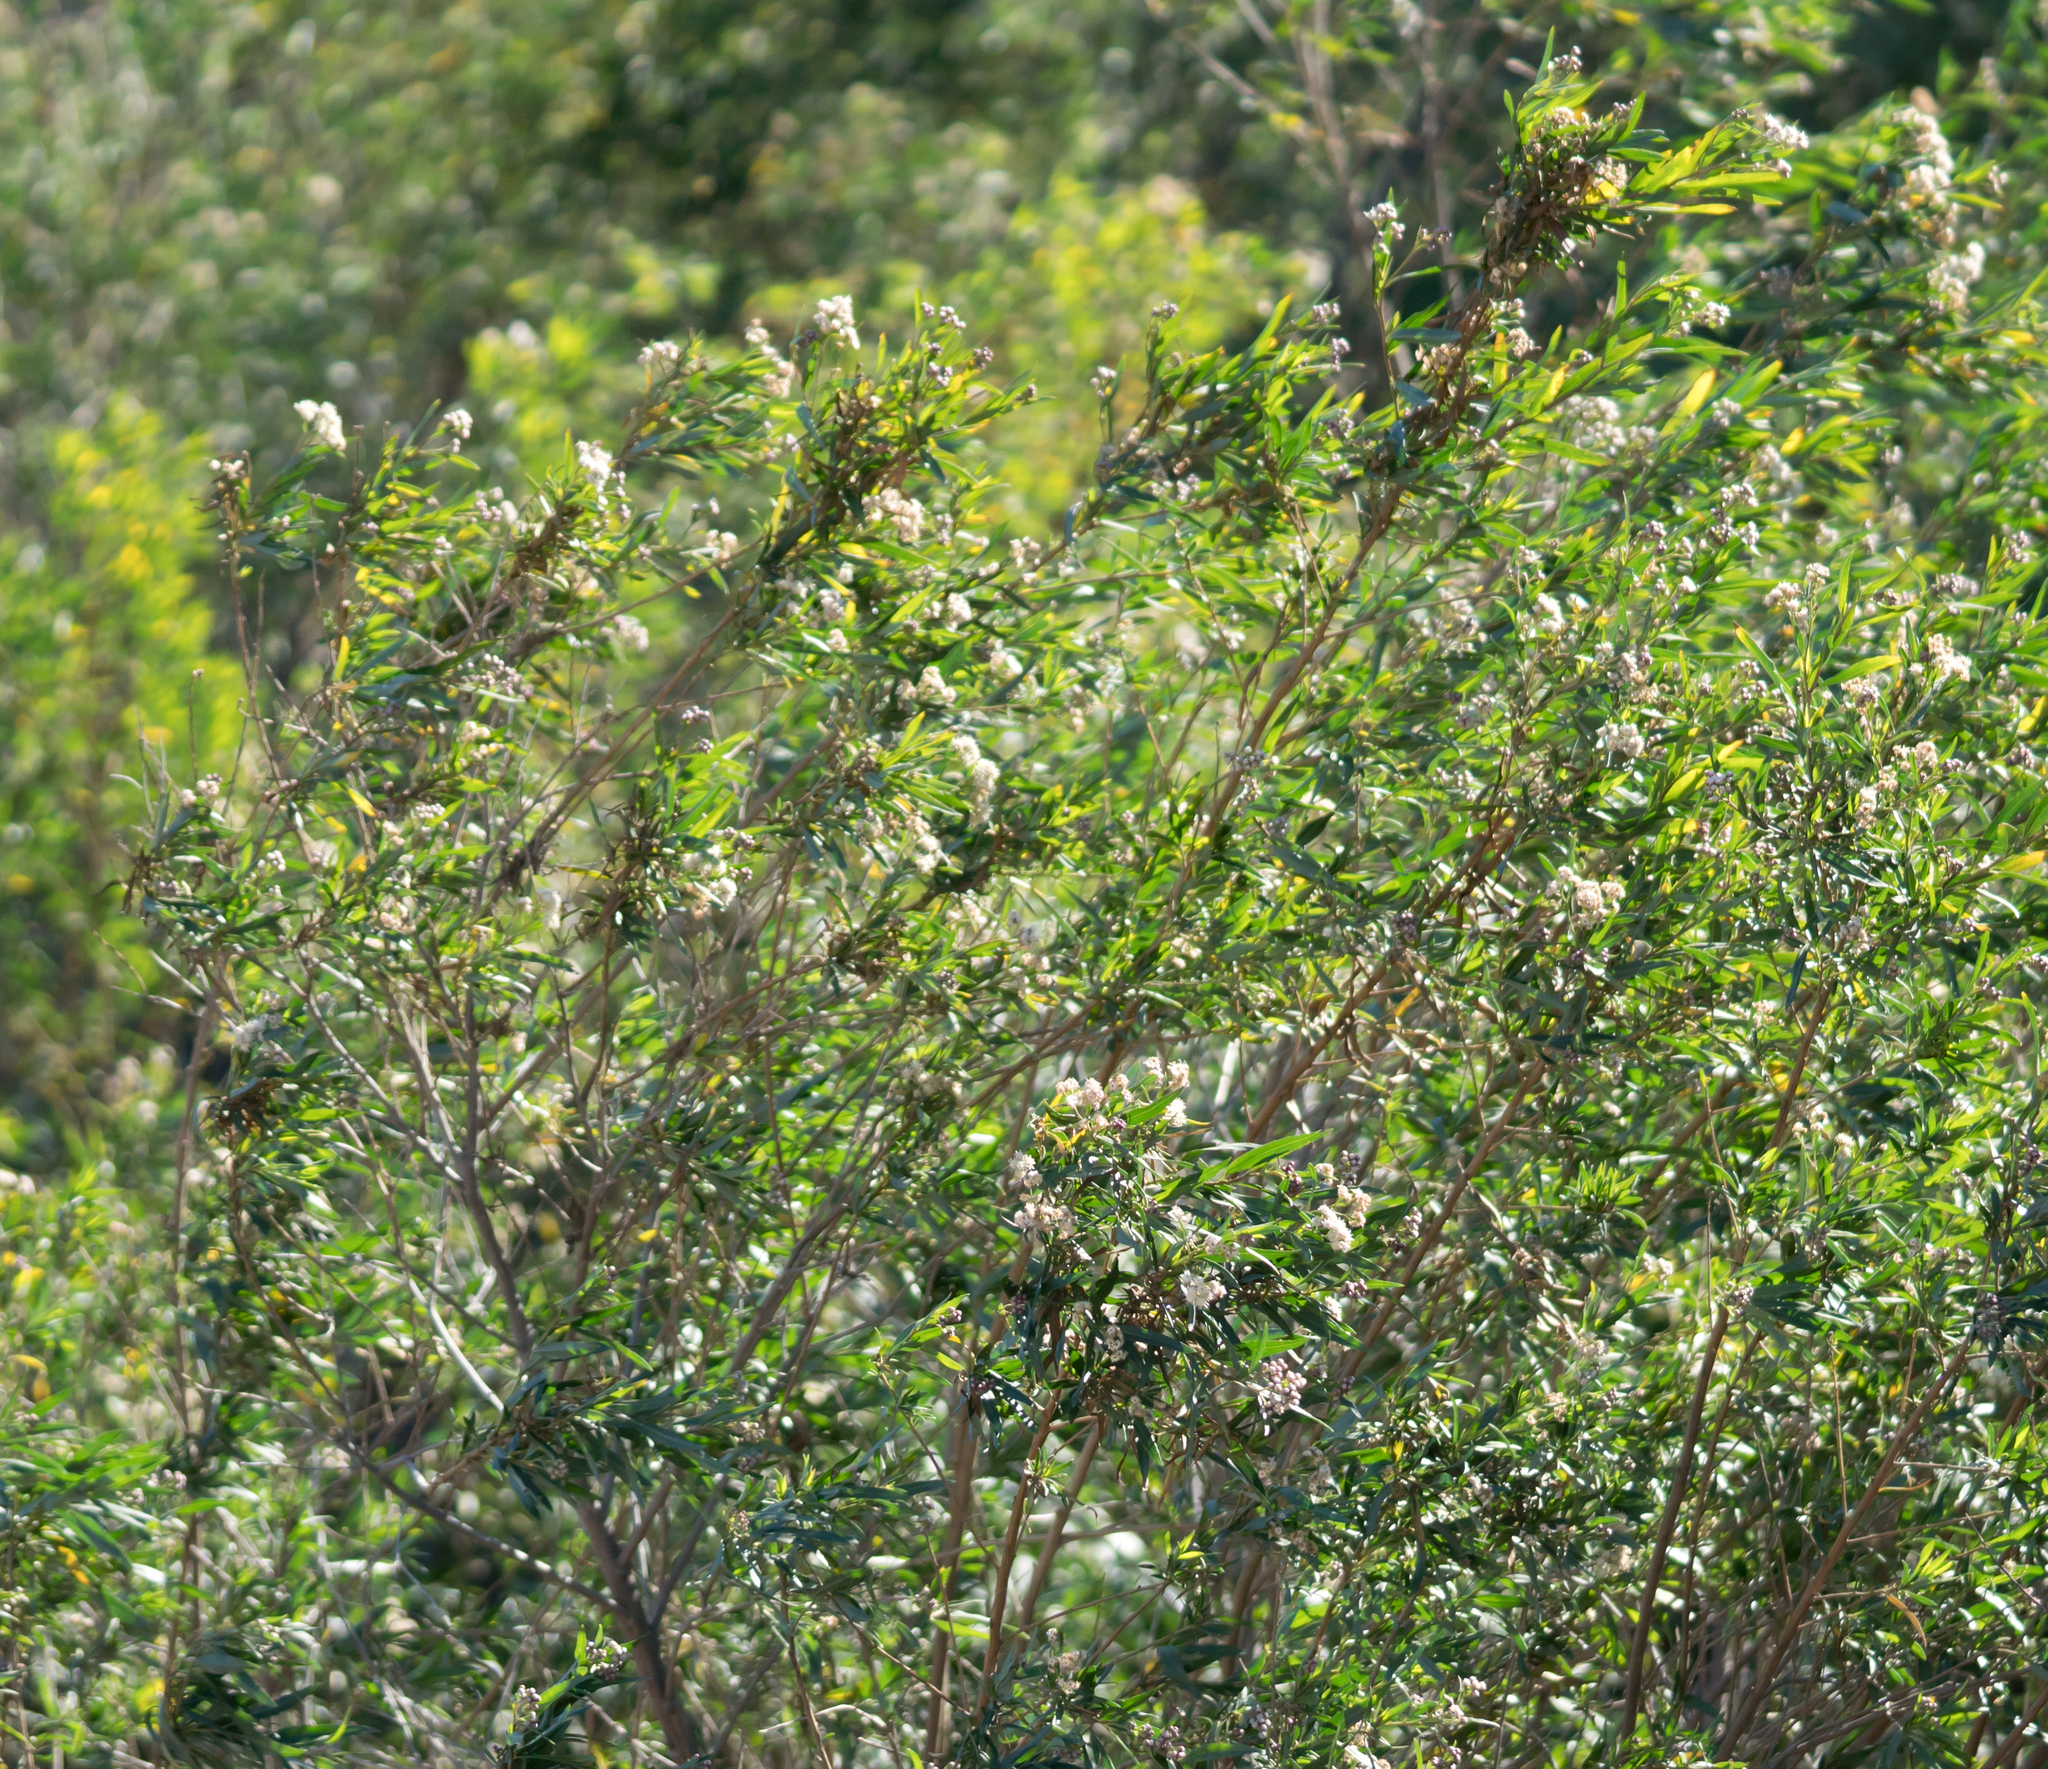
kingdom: Plantae
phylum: Tracheophyta
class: Magnoliopsida
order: Asterales
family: Asteraceae
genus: Baccharis
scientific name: Baccharis salicifolia
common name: Sticky baccharis
